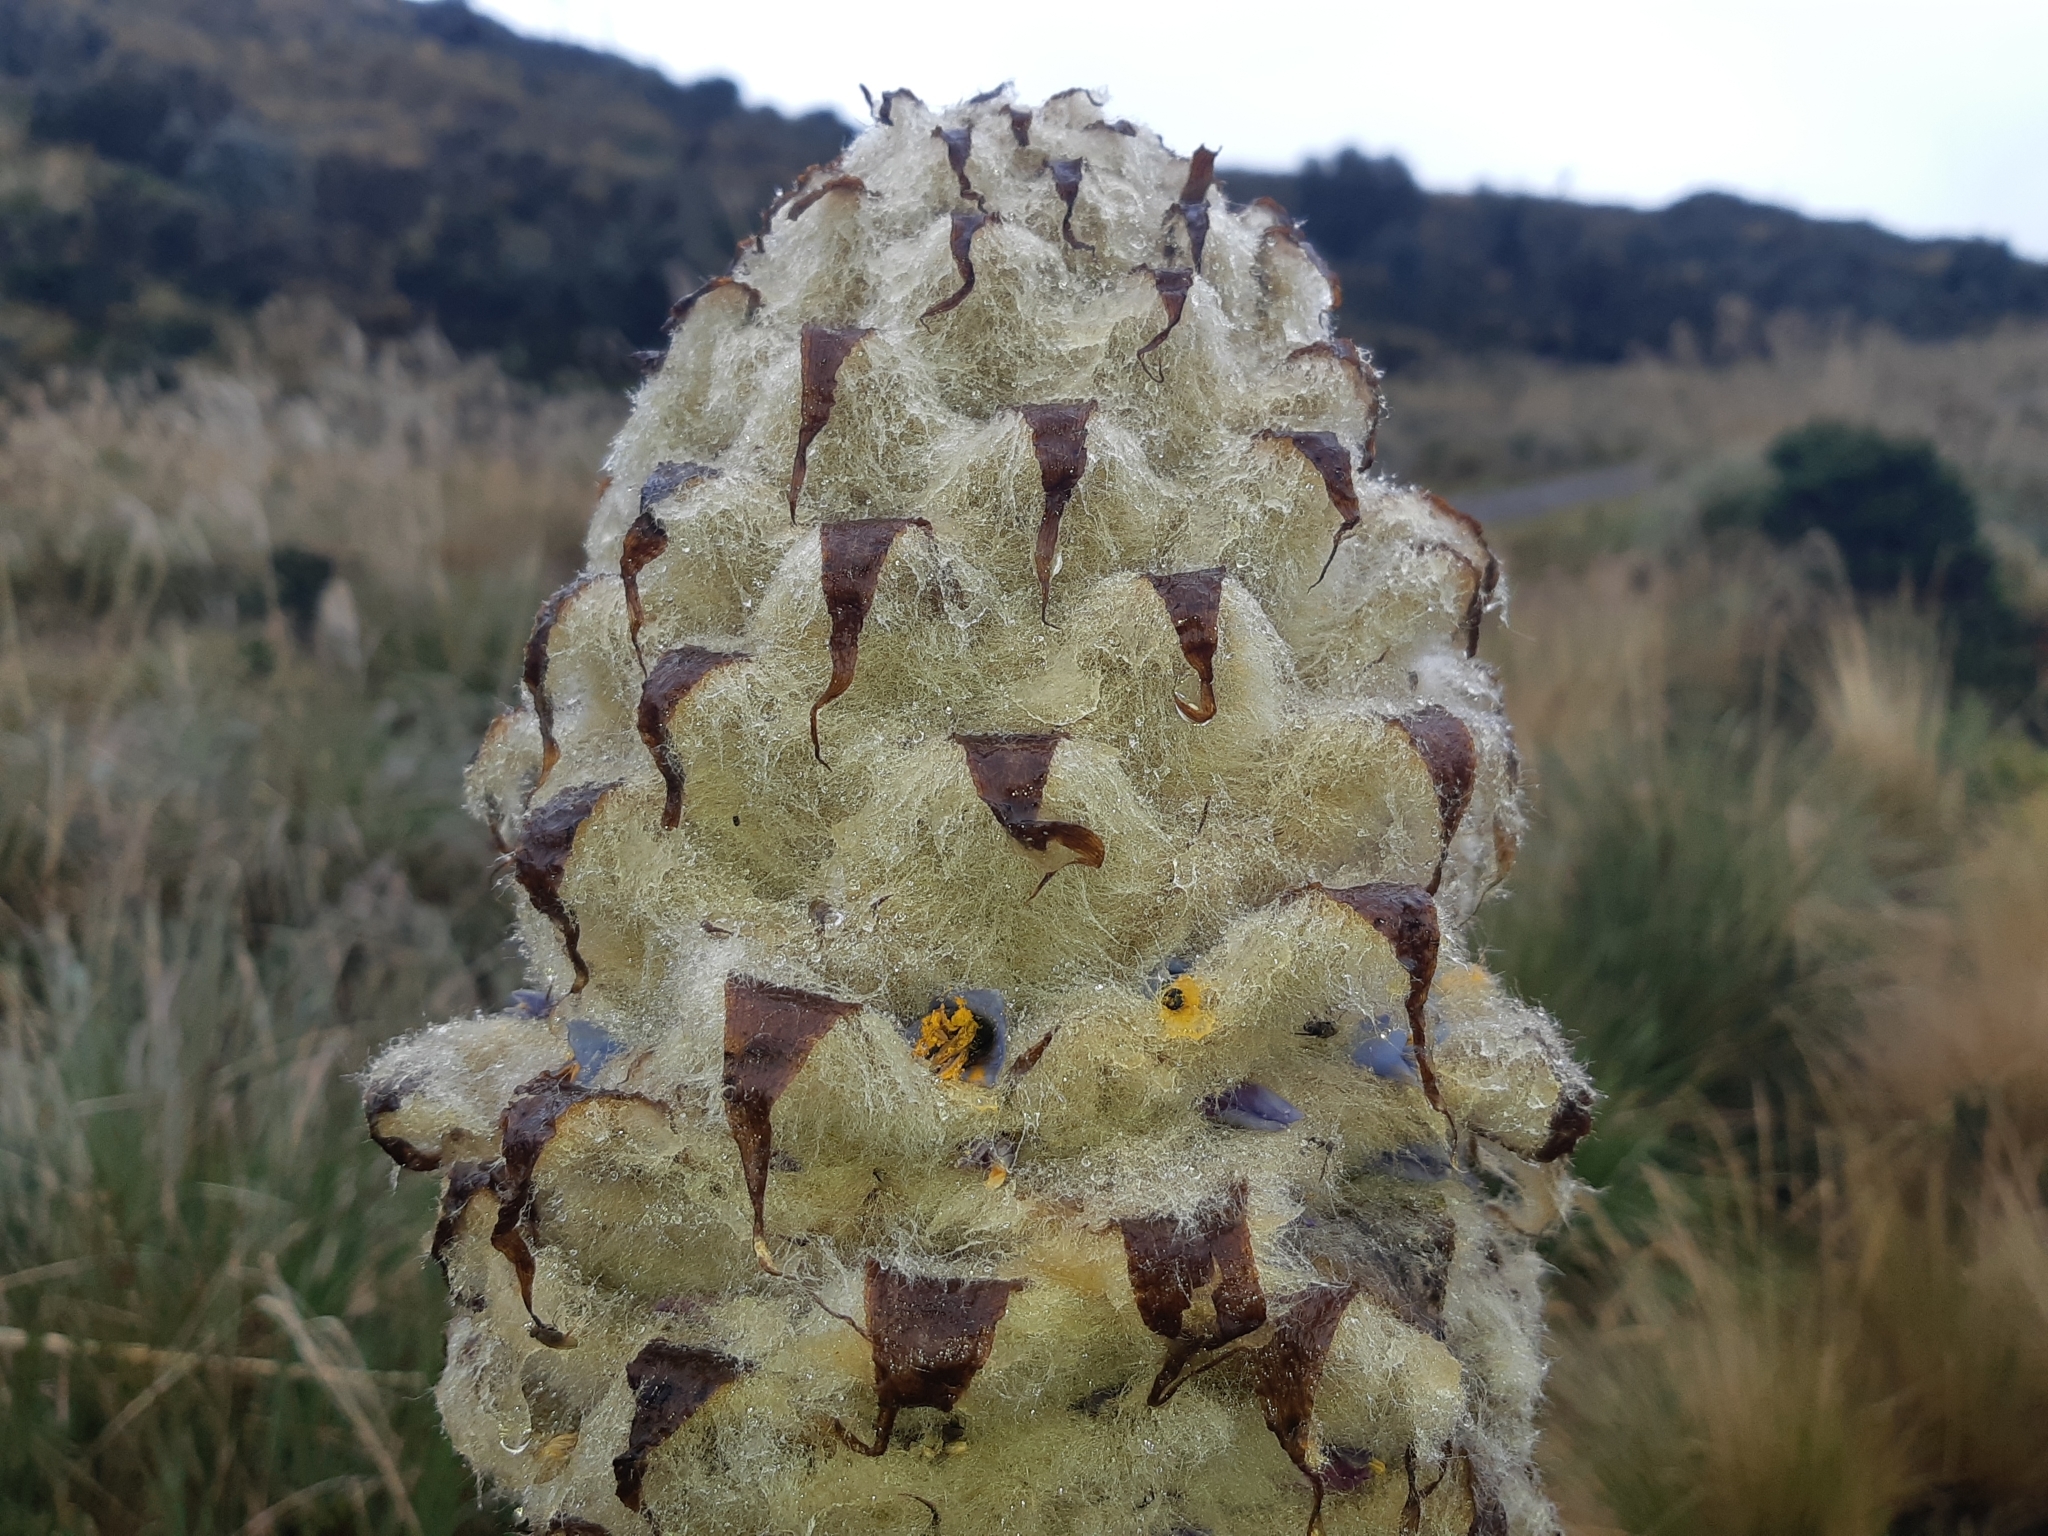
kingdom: Plantae
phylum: Tracheophyta
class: Liliopsida
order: Poales
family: Bromeliaceae
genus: Puya
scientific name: Puya clava-herculis
